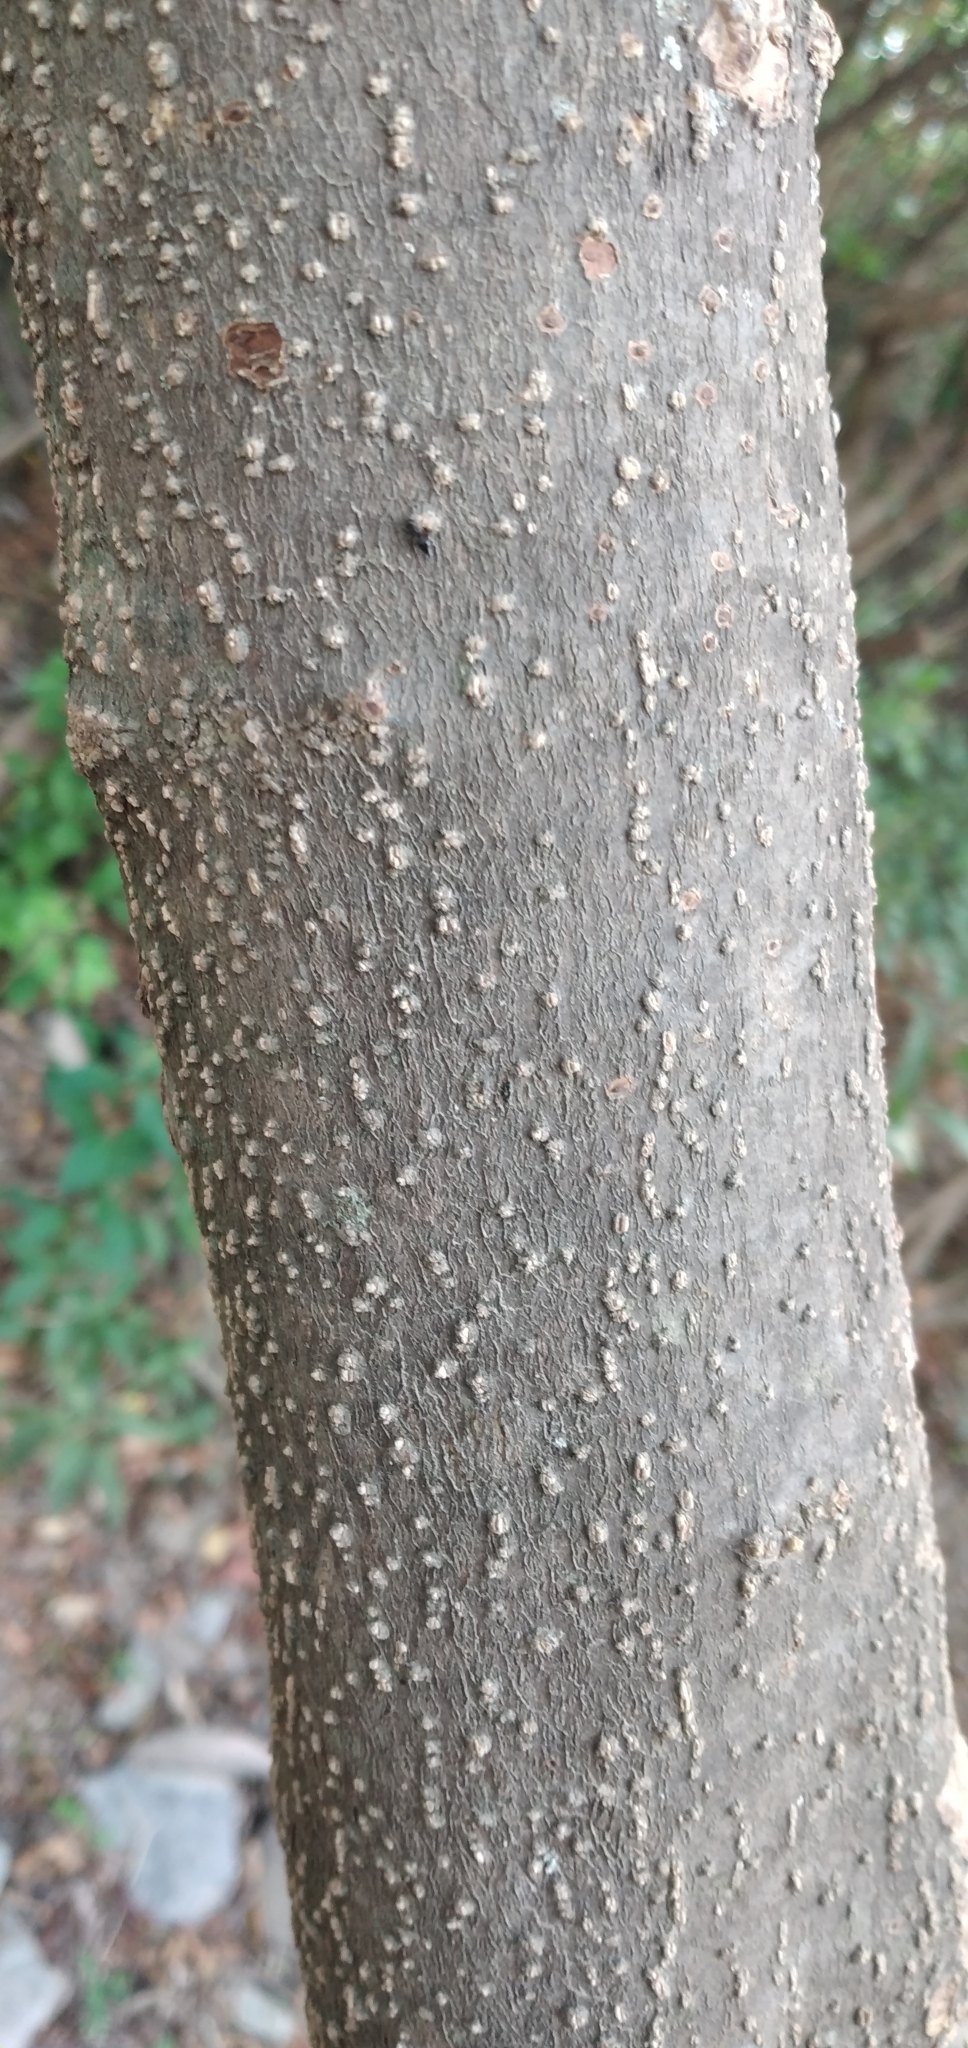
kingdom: Plantae
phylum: Tracheophyta
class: Magnoliopsida
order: Solanales
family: Solanaceae
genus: Vassobia
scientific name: Vassobia breviflora
